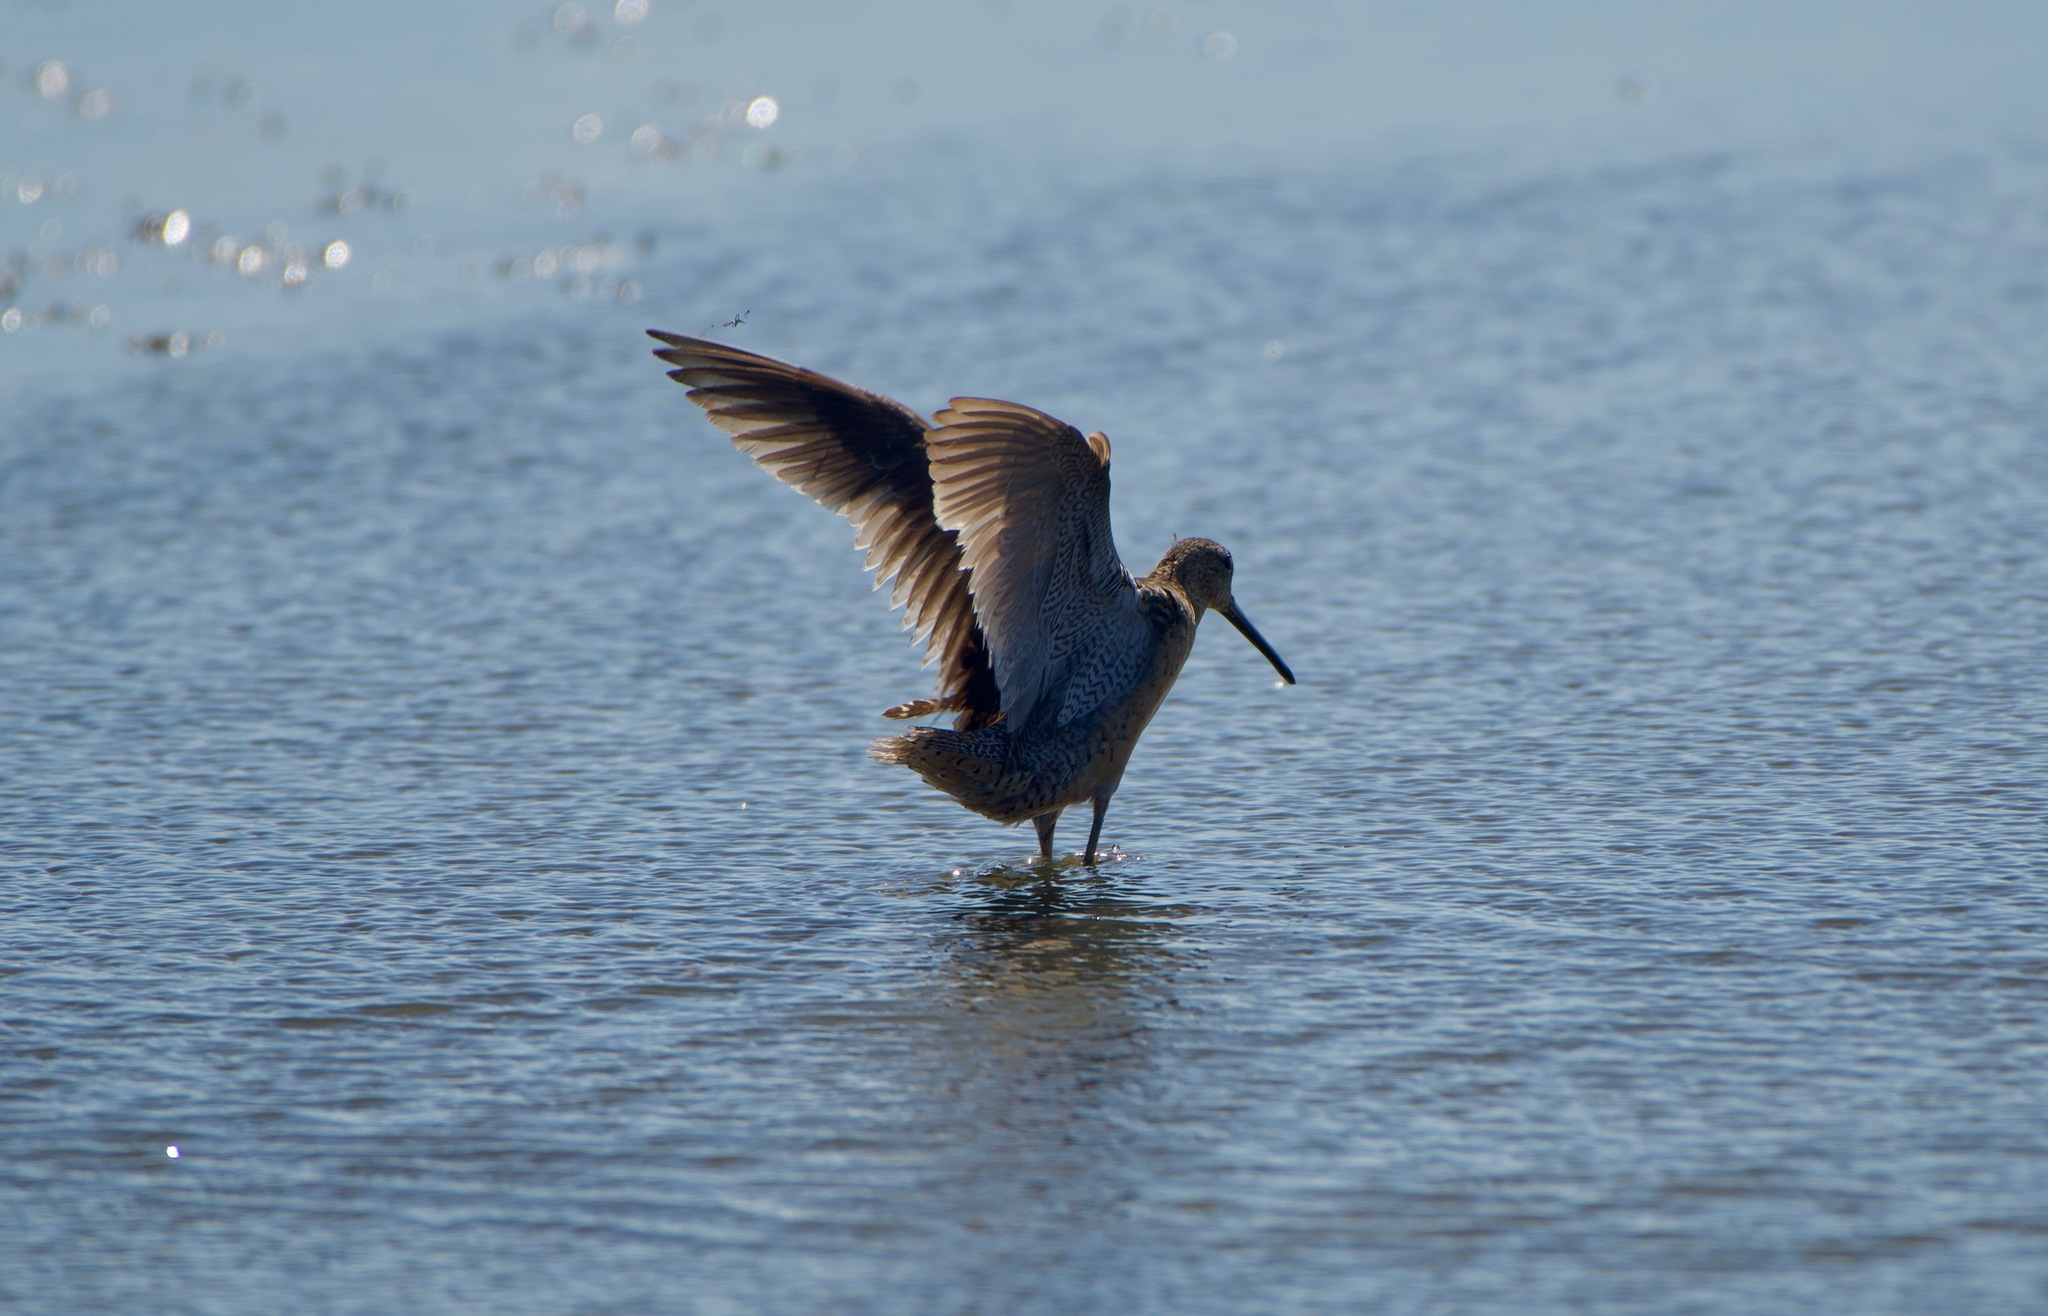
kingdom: Animalia
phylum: Chordata
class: Aves
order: Charadriiformes
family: Scolopacidae
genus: Limnodromus
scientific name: Limnodromus scolopaceus
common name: Long-billed dowitcher
